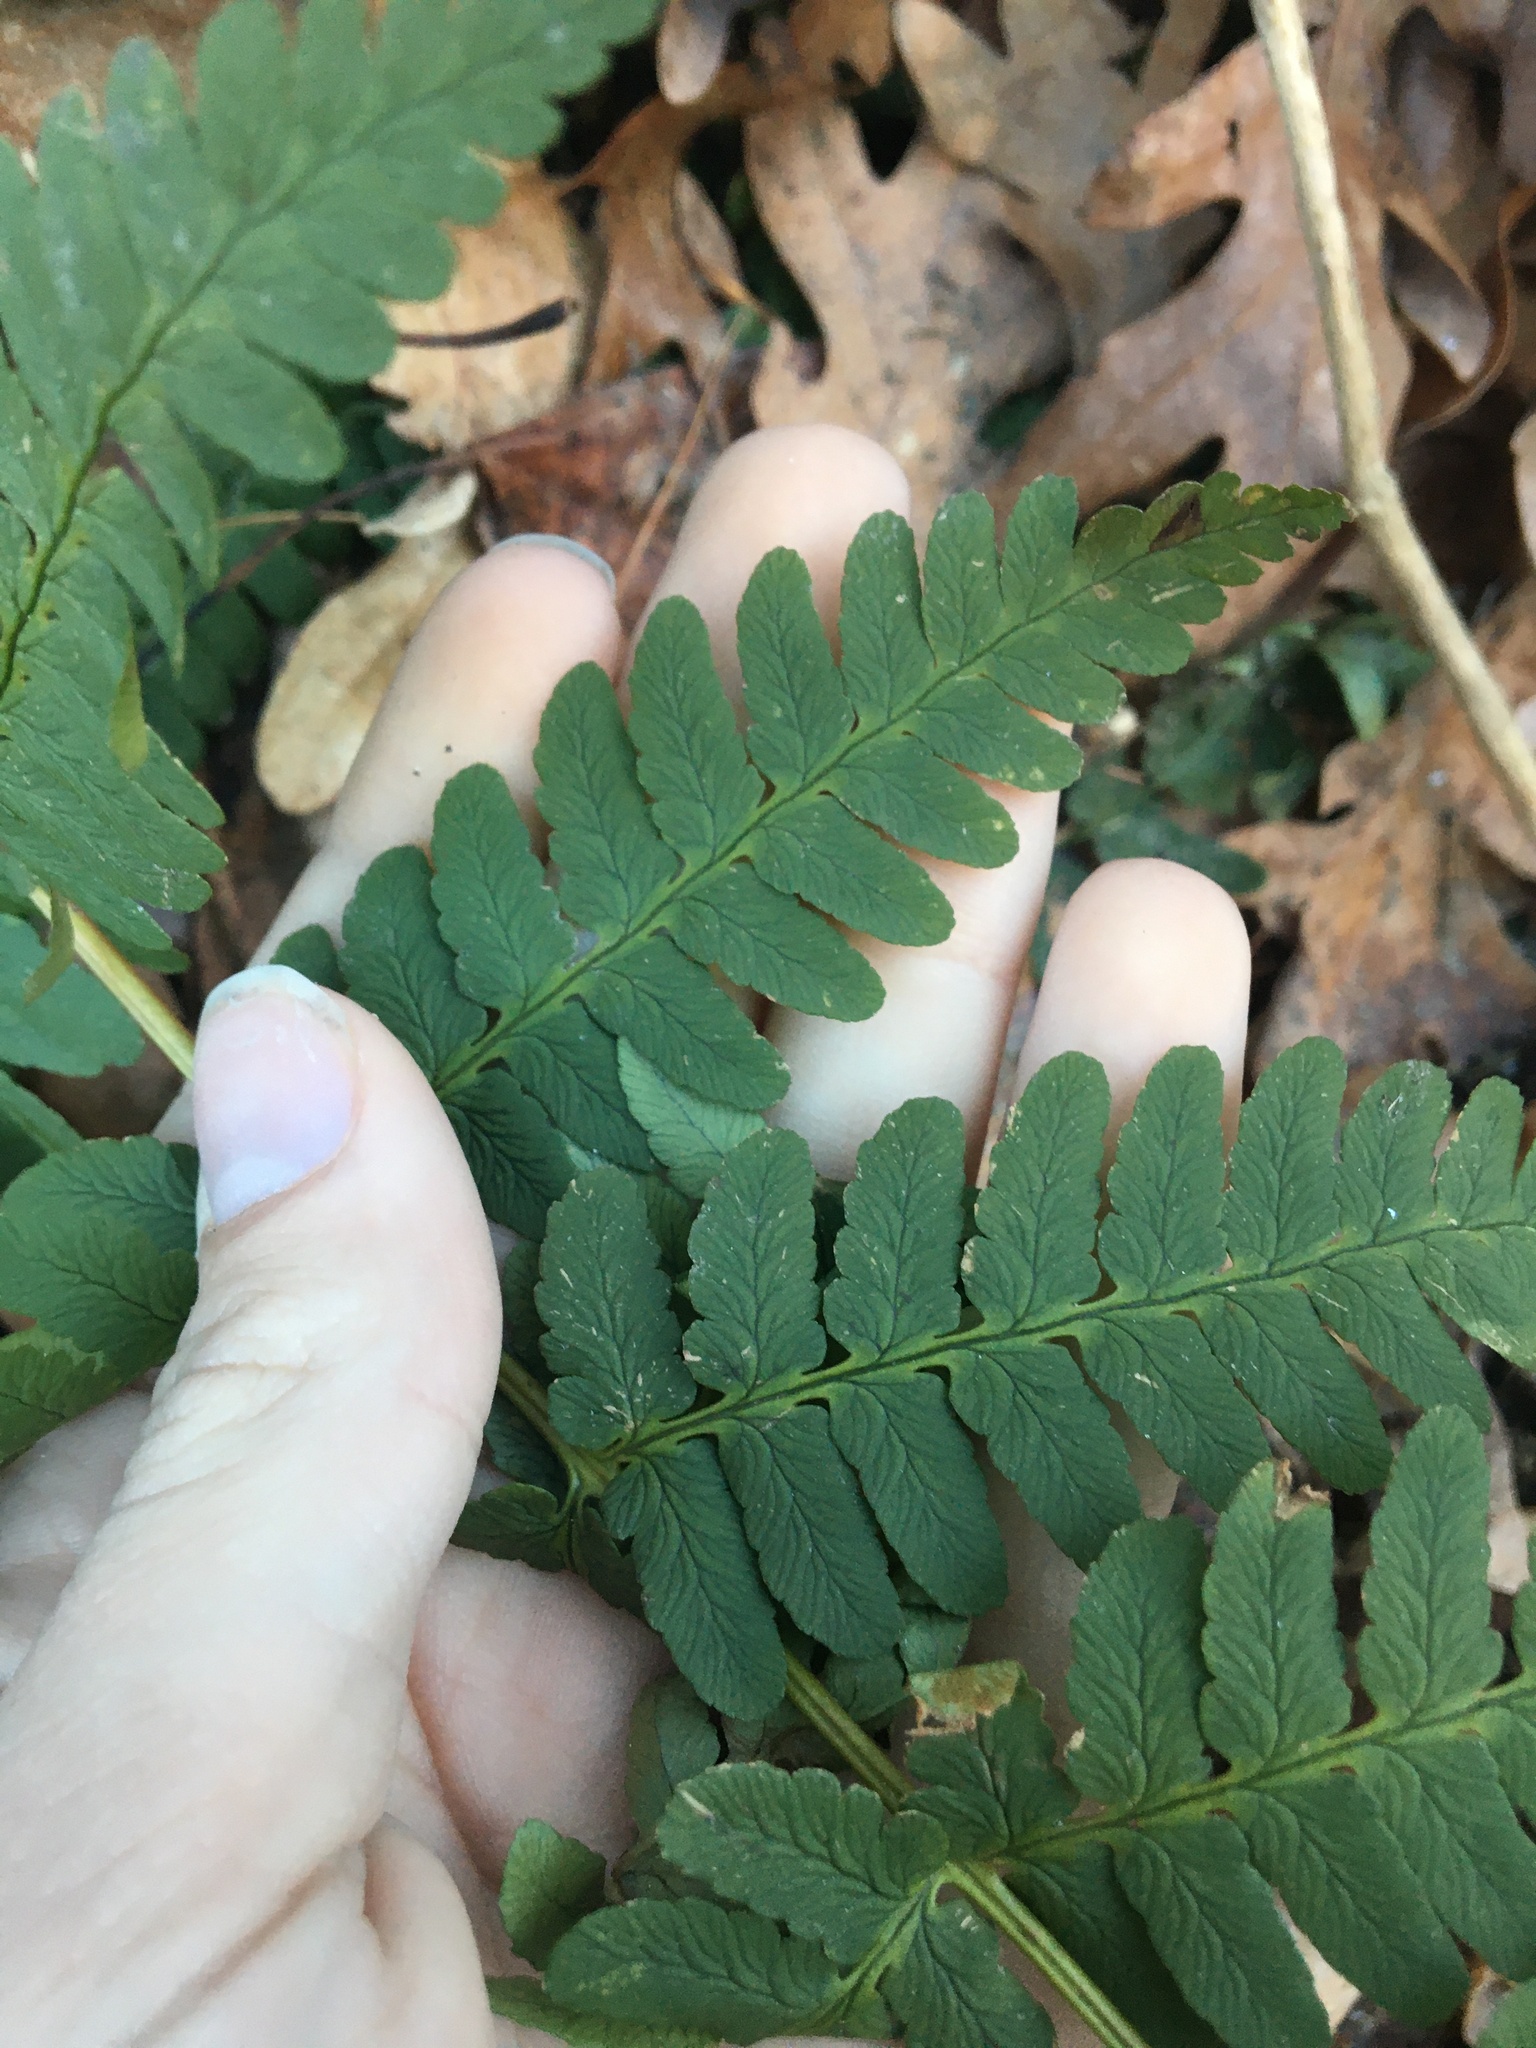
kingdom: Plantae
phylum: Tracheophyta
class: Polypodiopsida
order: Polypodiales
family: Dryopteridaceae
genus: Dryopteris
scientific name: Dryopteris marginalis
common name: Marginal wood fern
